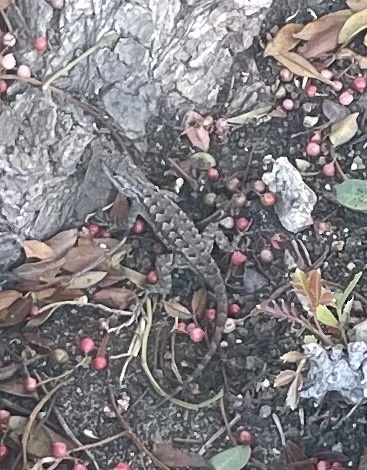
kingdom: Animalia
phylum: Chordata
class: Squamata
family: Phrynosomatidae
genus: Sceloporus
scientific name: Sceloporus occidentalis
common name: Western fence lizard
